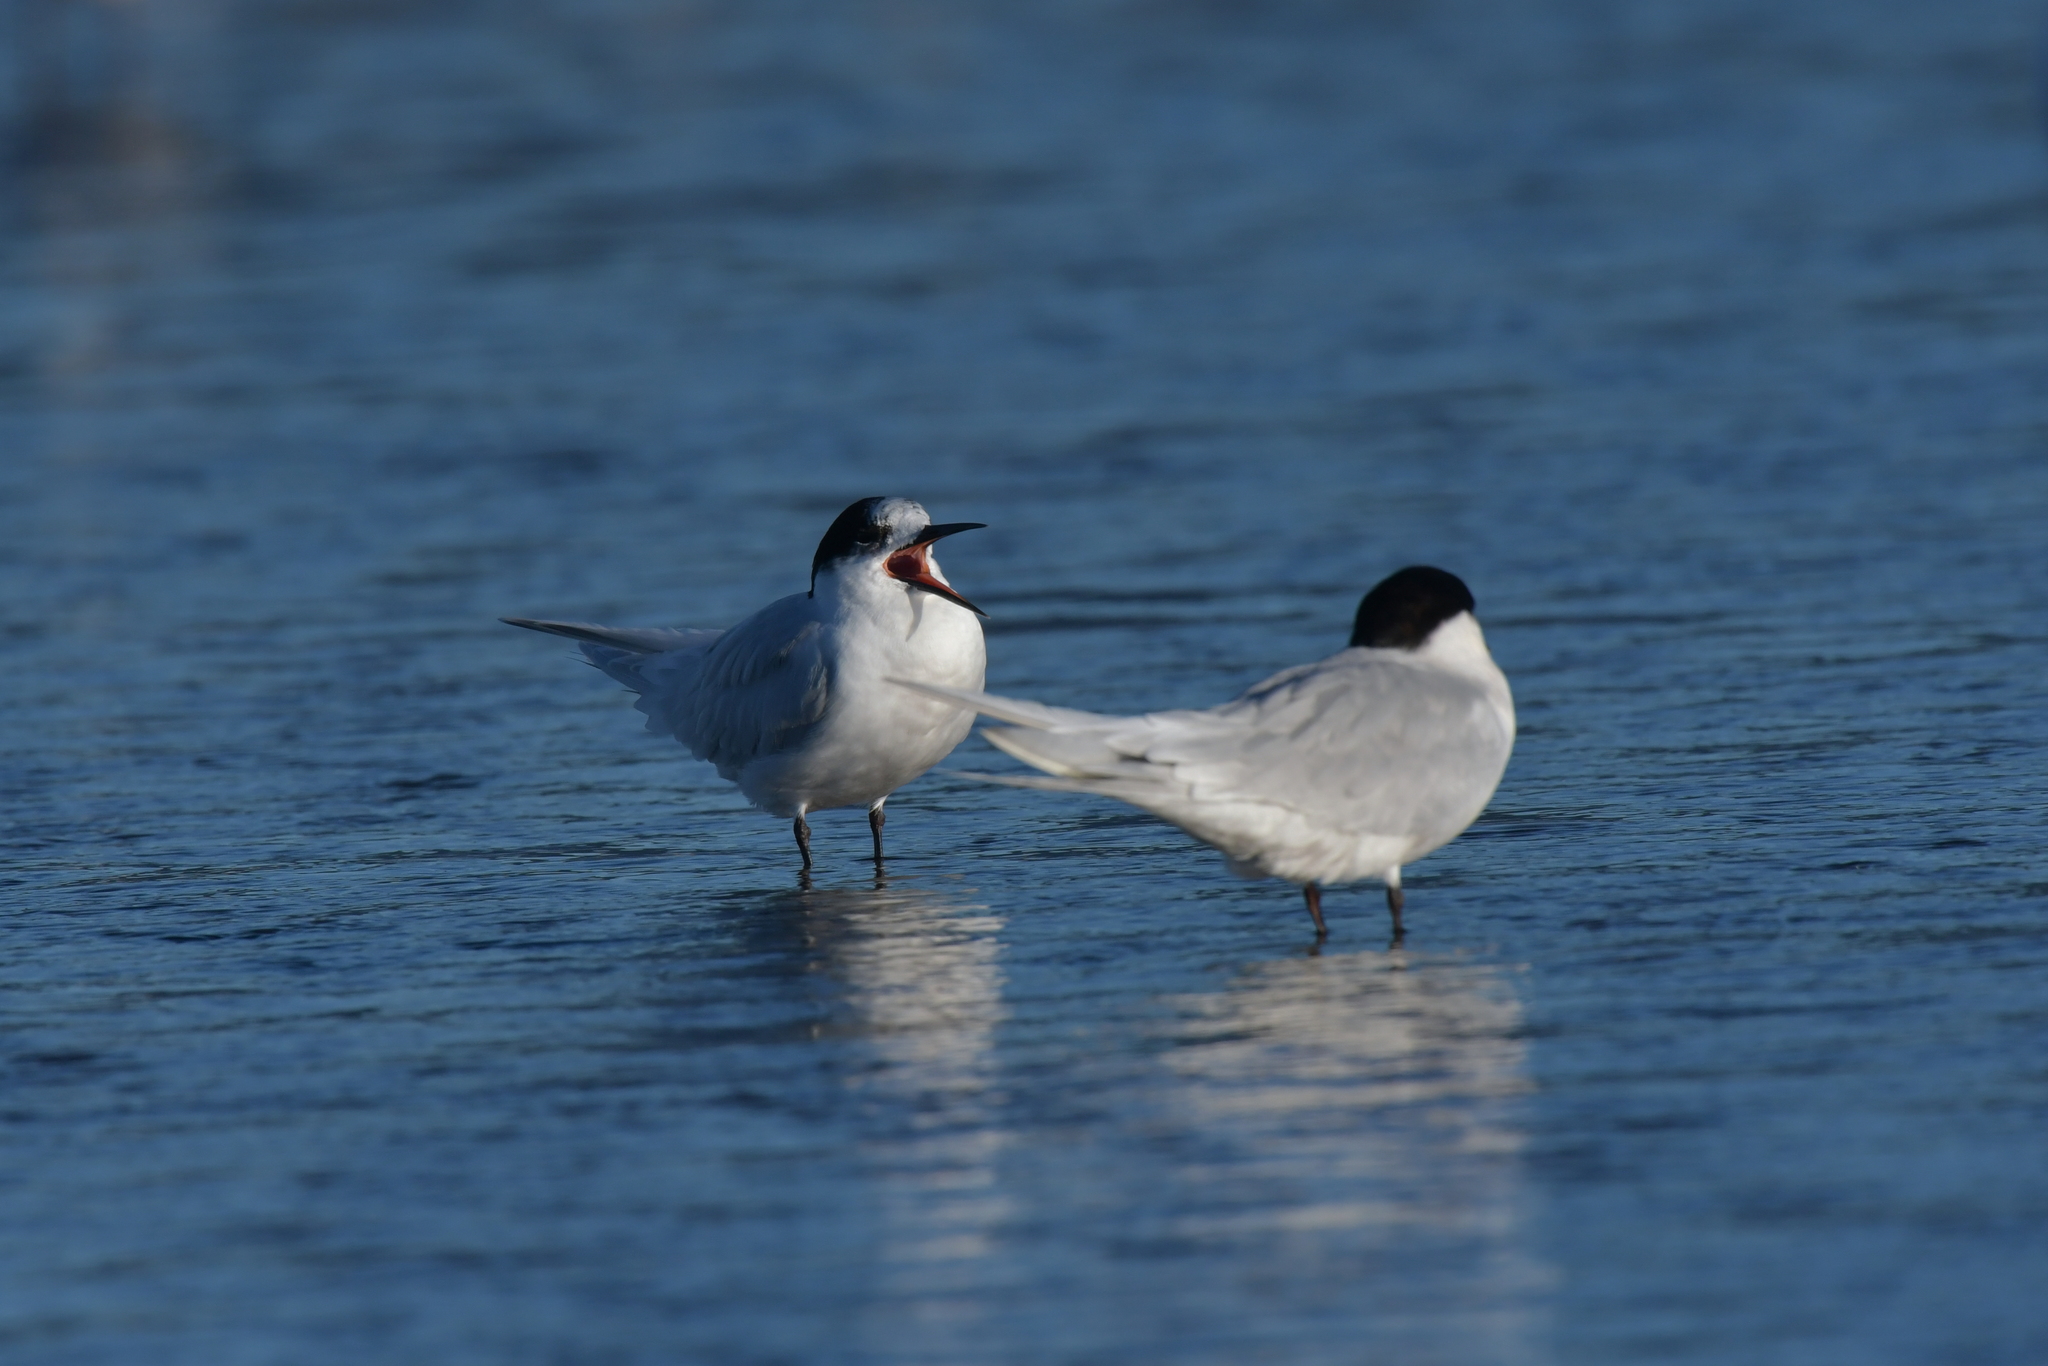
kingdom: Animalia
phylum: Chordata
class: Aves
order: Charadriiformes
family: Laridae
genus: Sterna
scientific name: Sterna striata
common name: White-fronted tern
